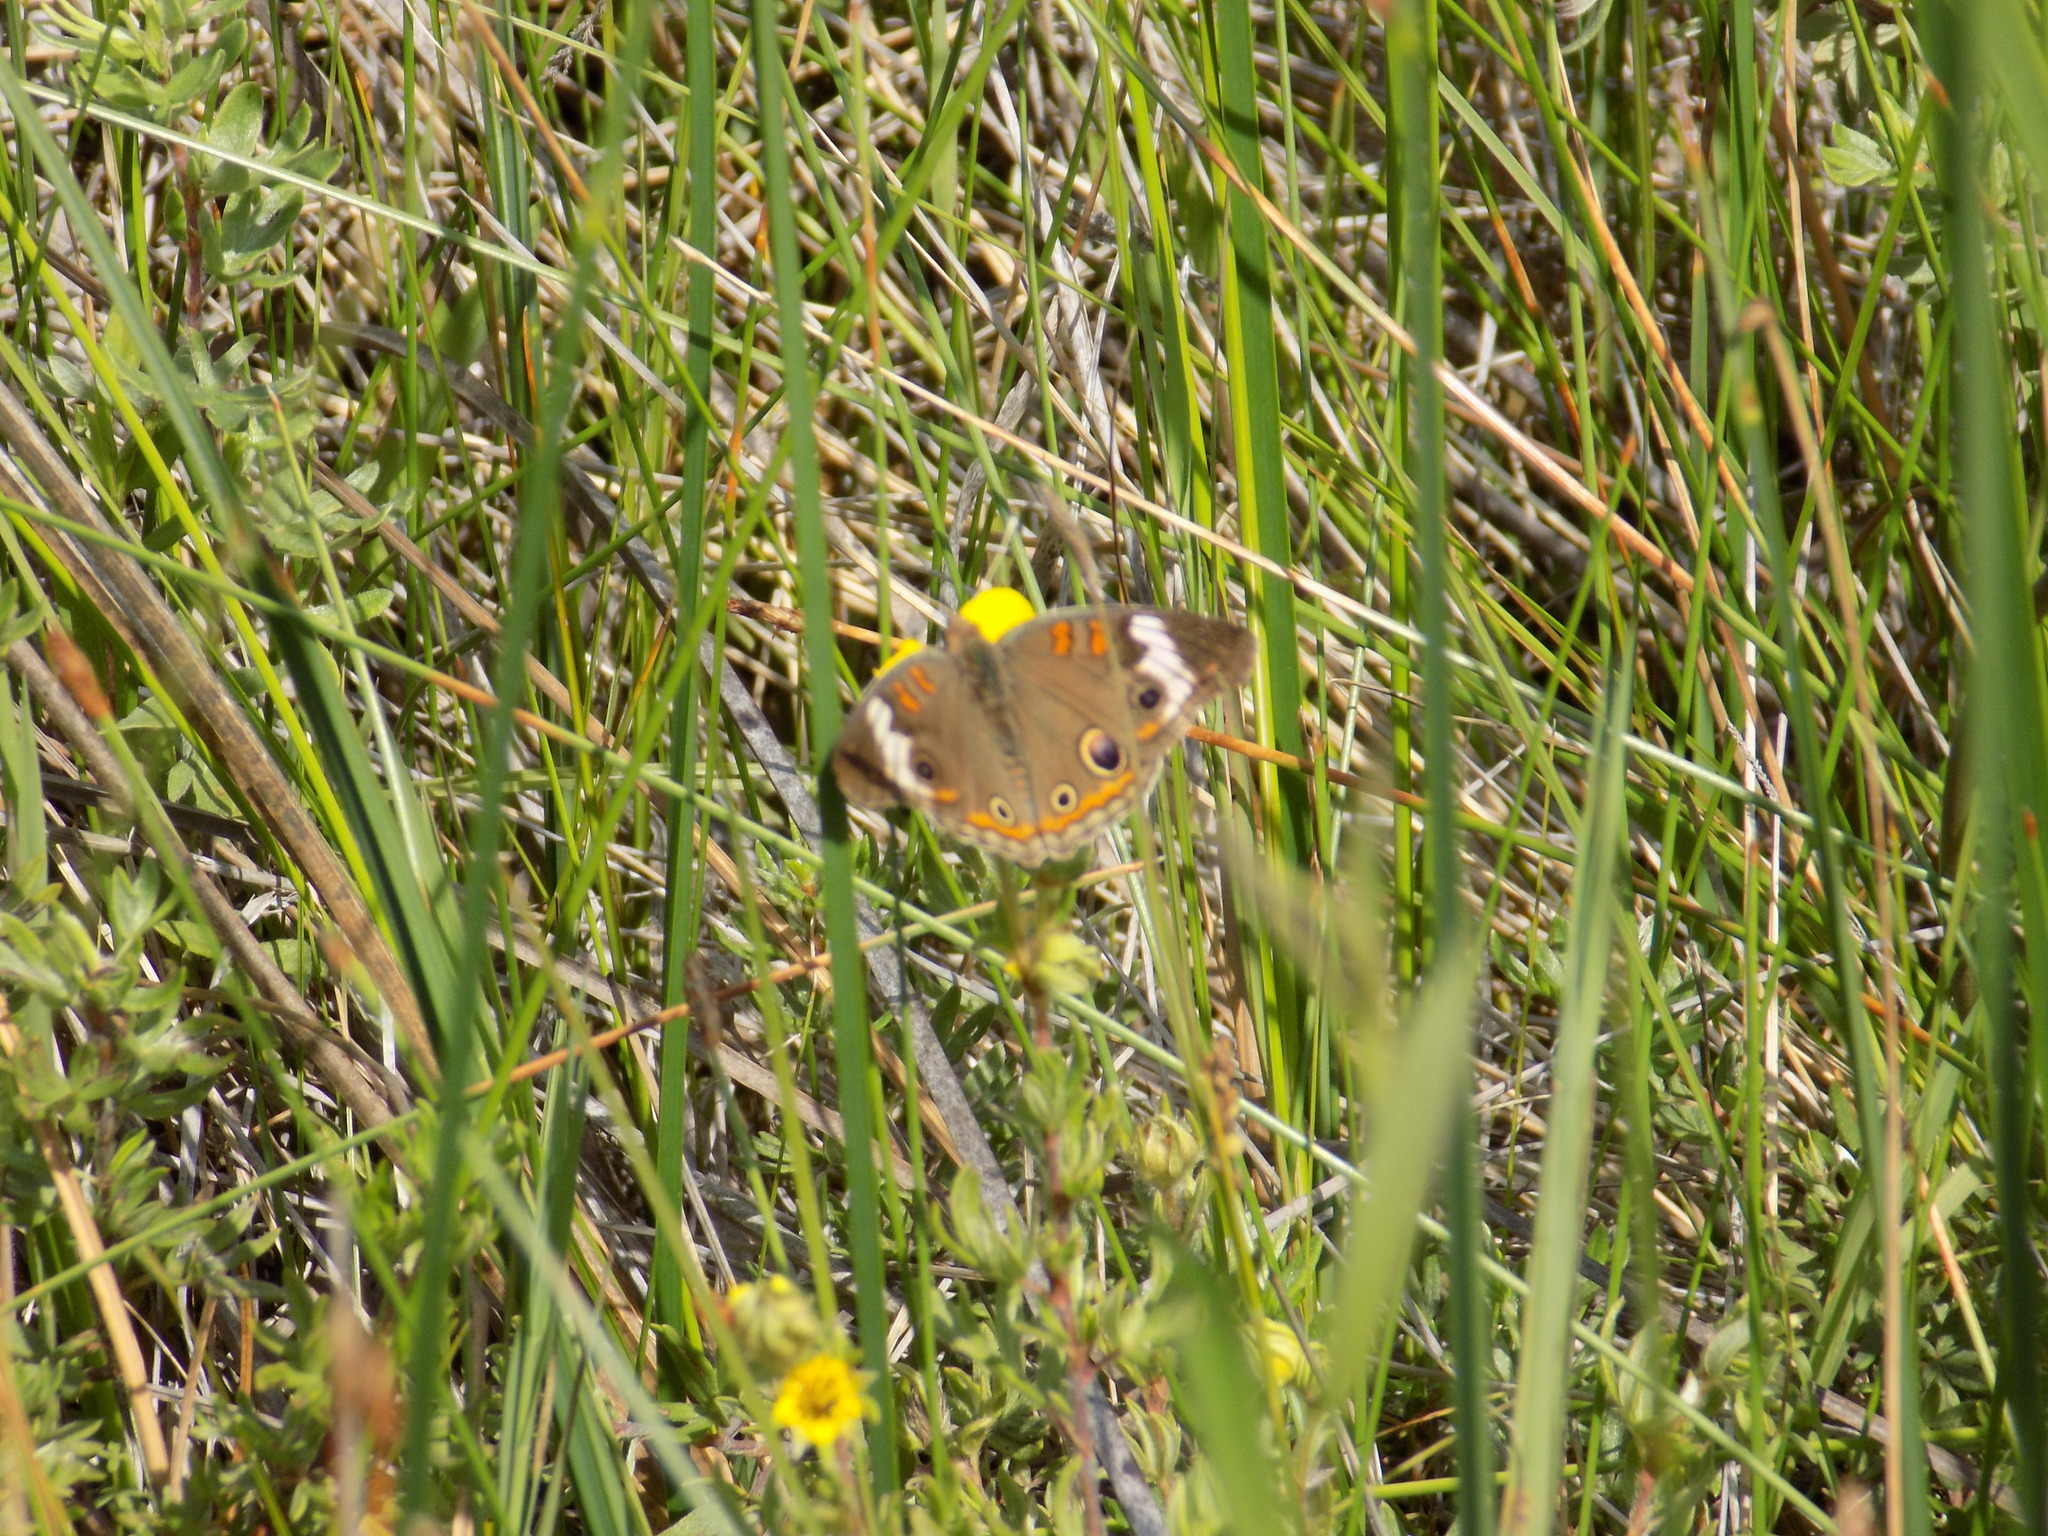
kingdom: Animalia
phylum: Arthropoda
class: Insecta
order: Lepidoptera
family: Nymphalidae
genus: Junonia
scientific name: Junonia coenia
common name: Common buckeye
